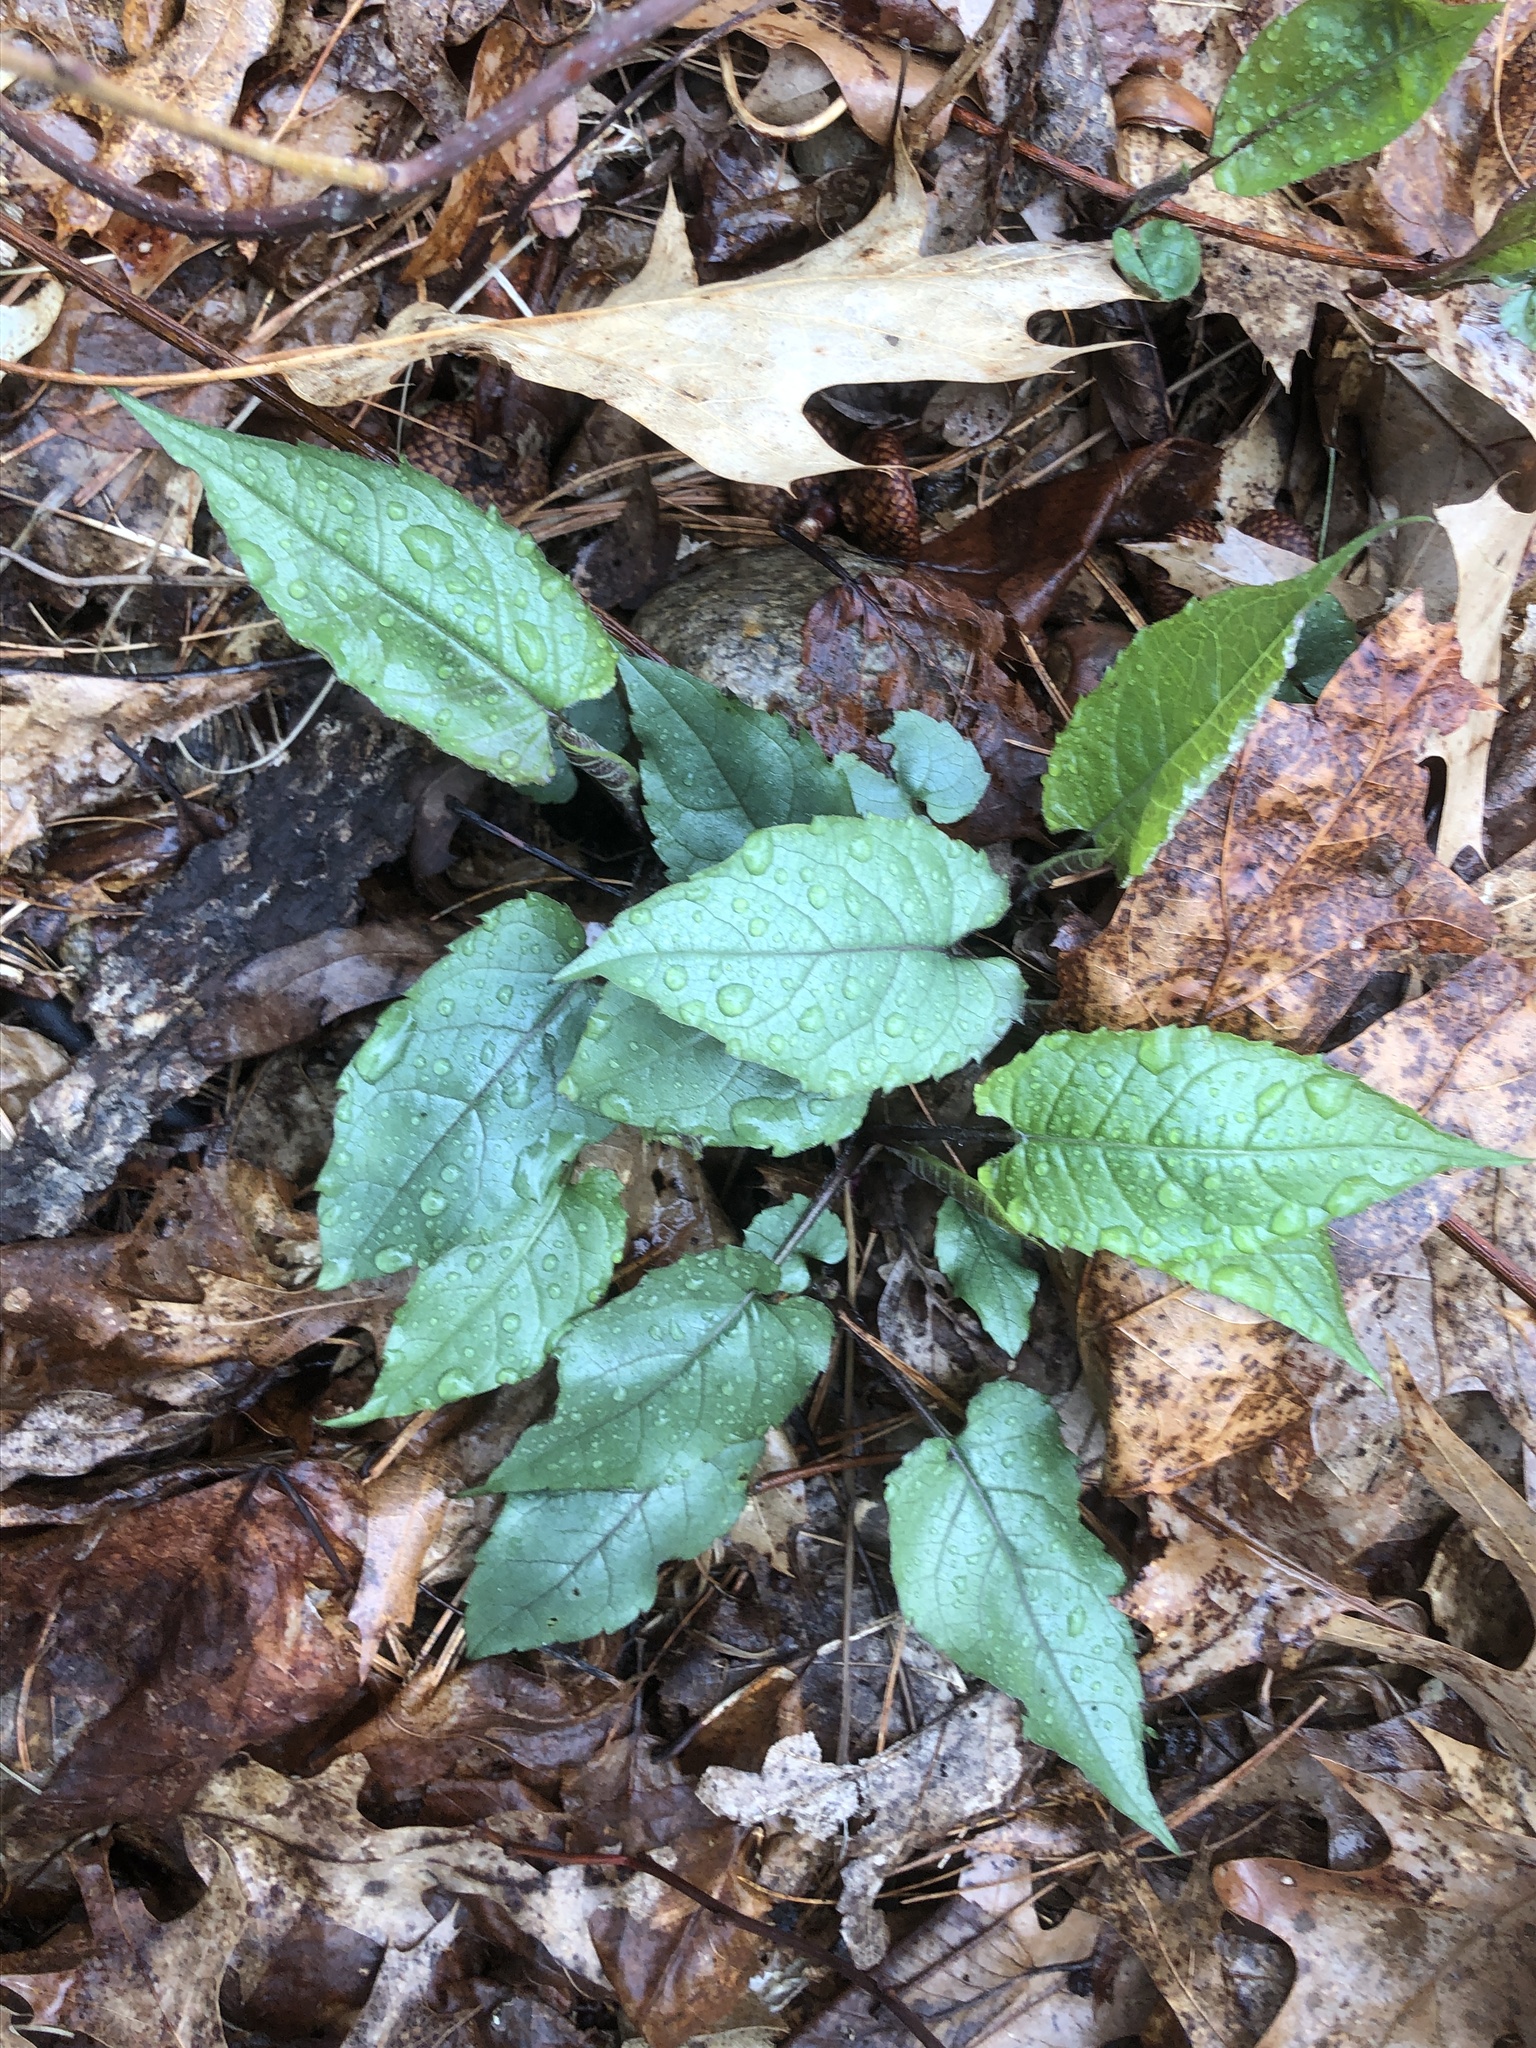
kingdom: Plantae
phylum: Tracheophyta
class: Magnoliopsida
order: Asterales
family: Asteraceae
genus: Eurybia
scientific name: Eurybia divaricata
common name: White wood aster
